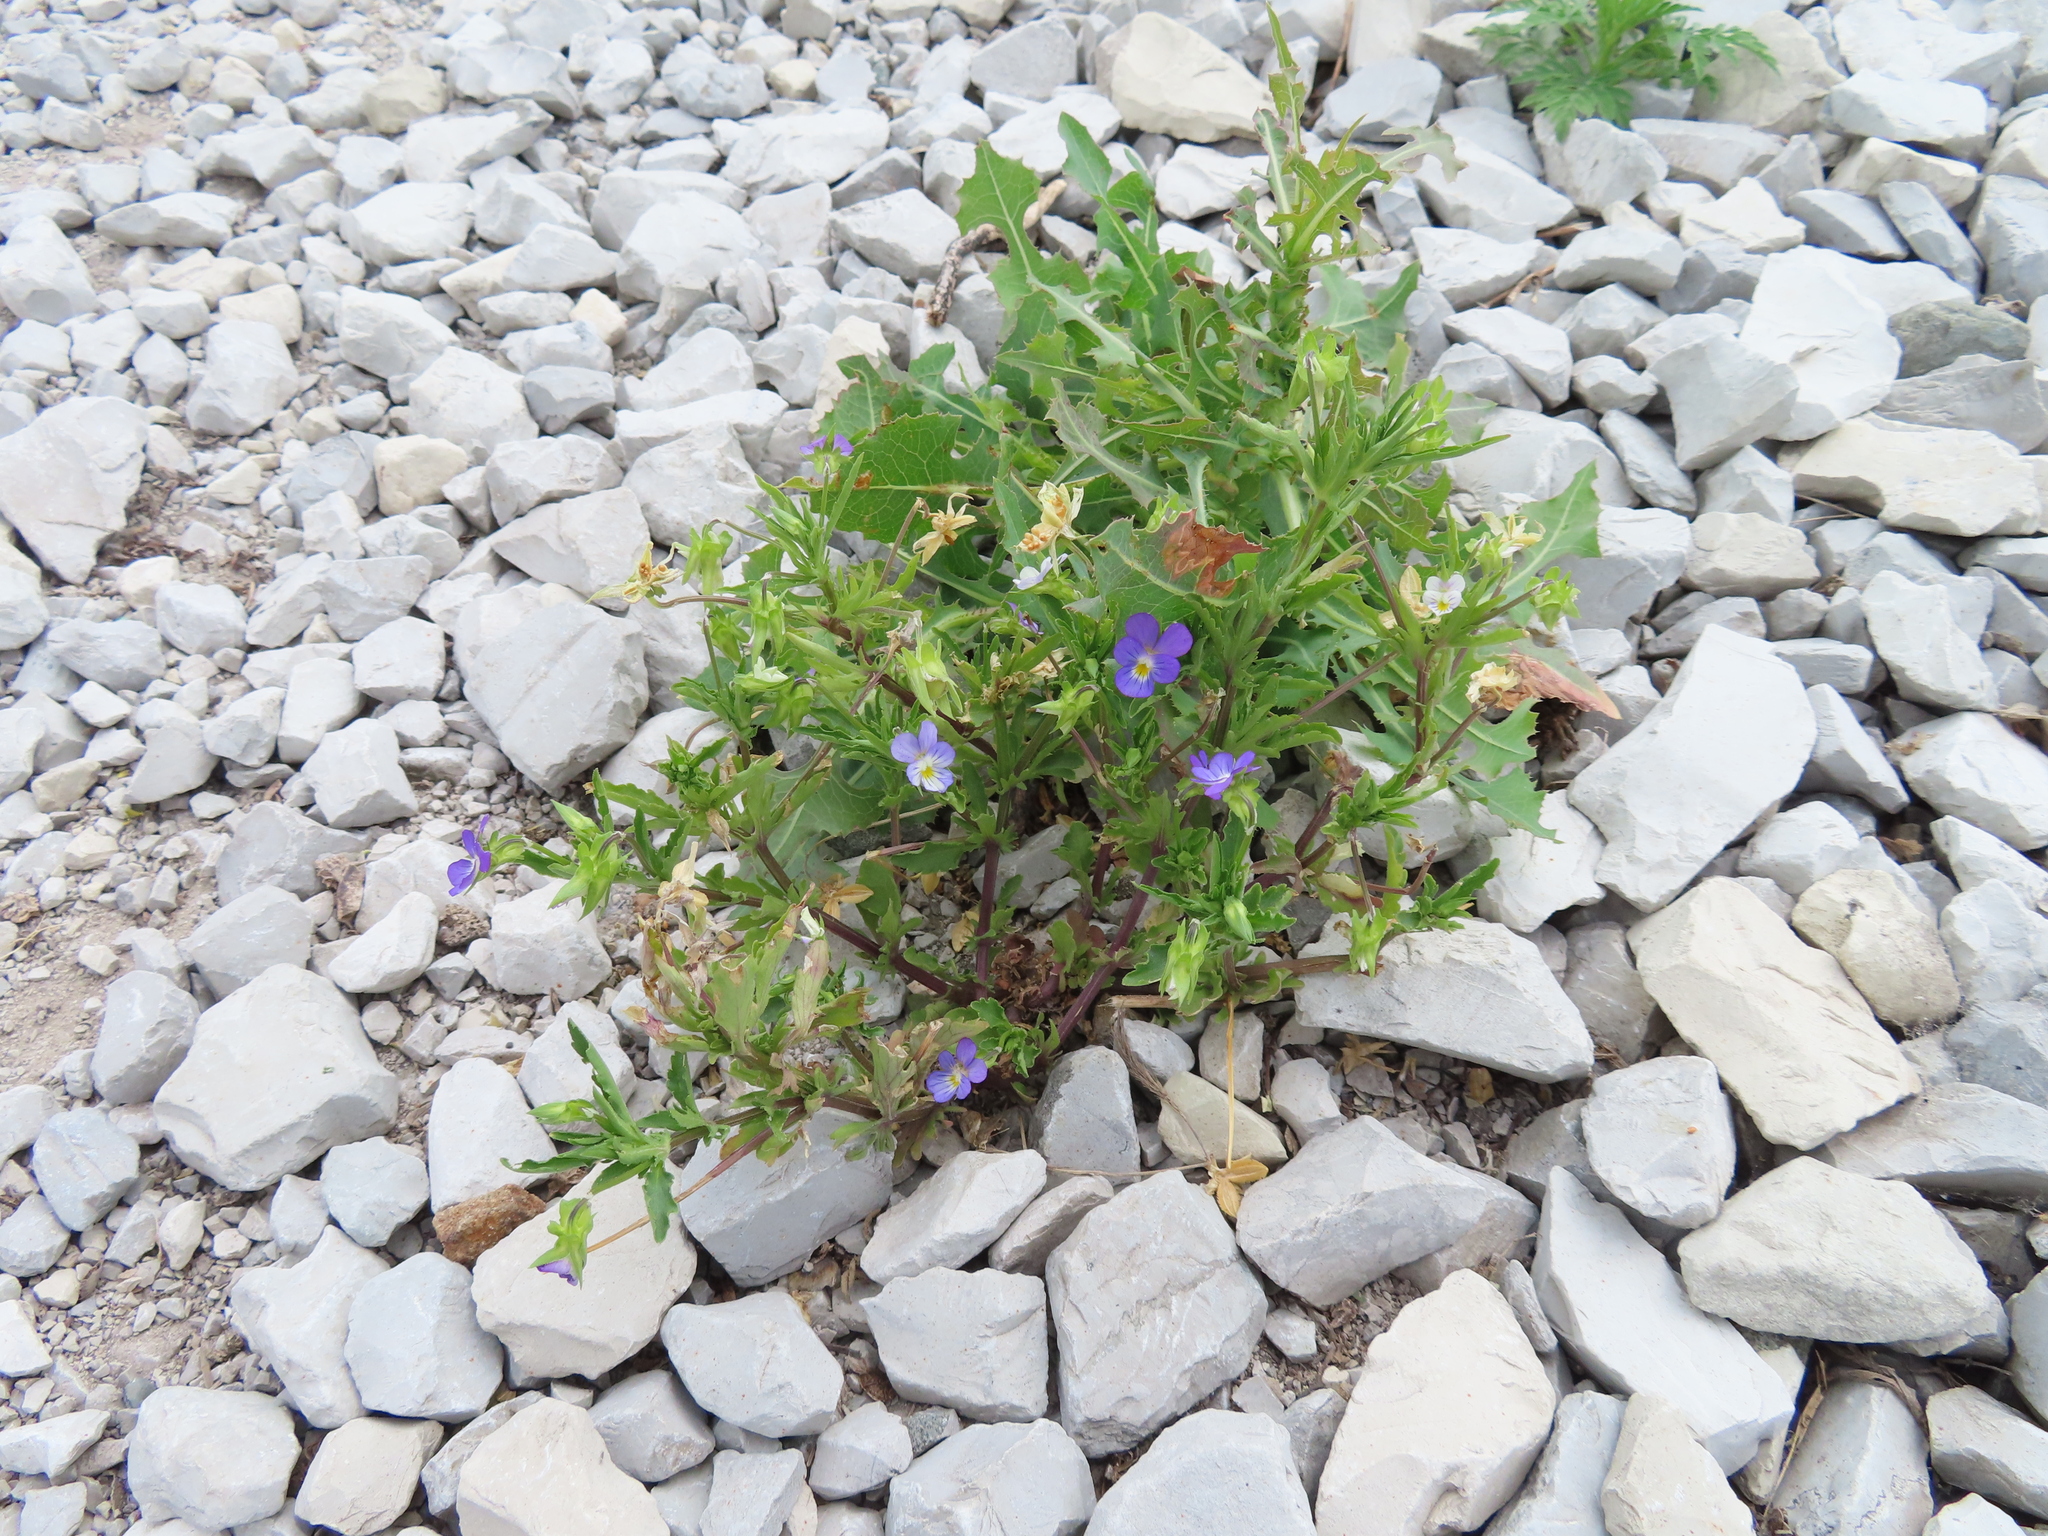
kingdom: Plantae
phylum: Tracheophyta
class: Magnoliopsida
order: Malpighiales
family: Violaceae
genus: Viola
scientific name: Viola tricolor
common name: Pansy
